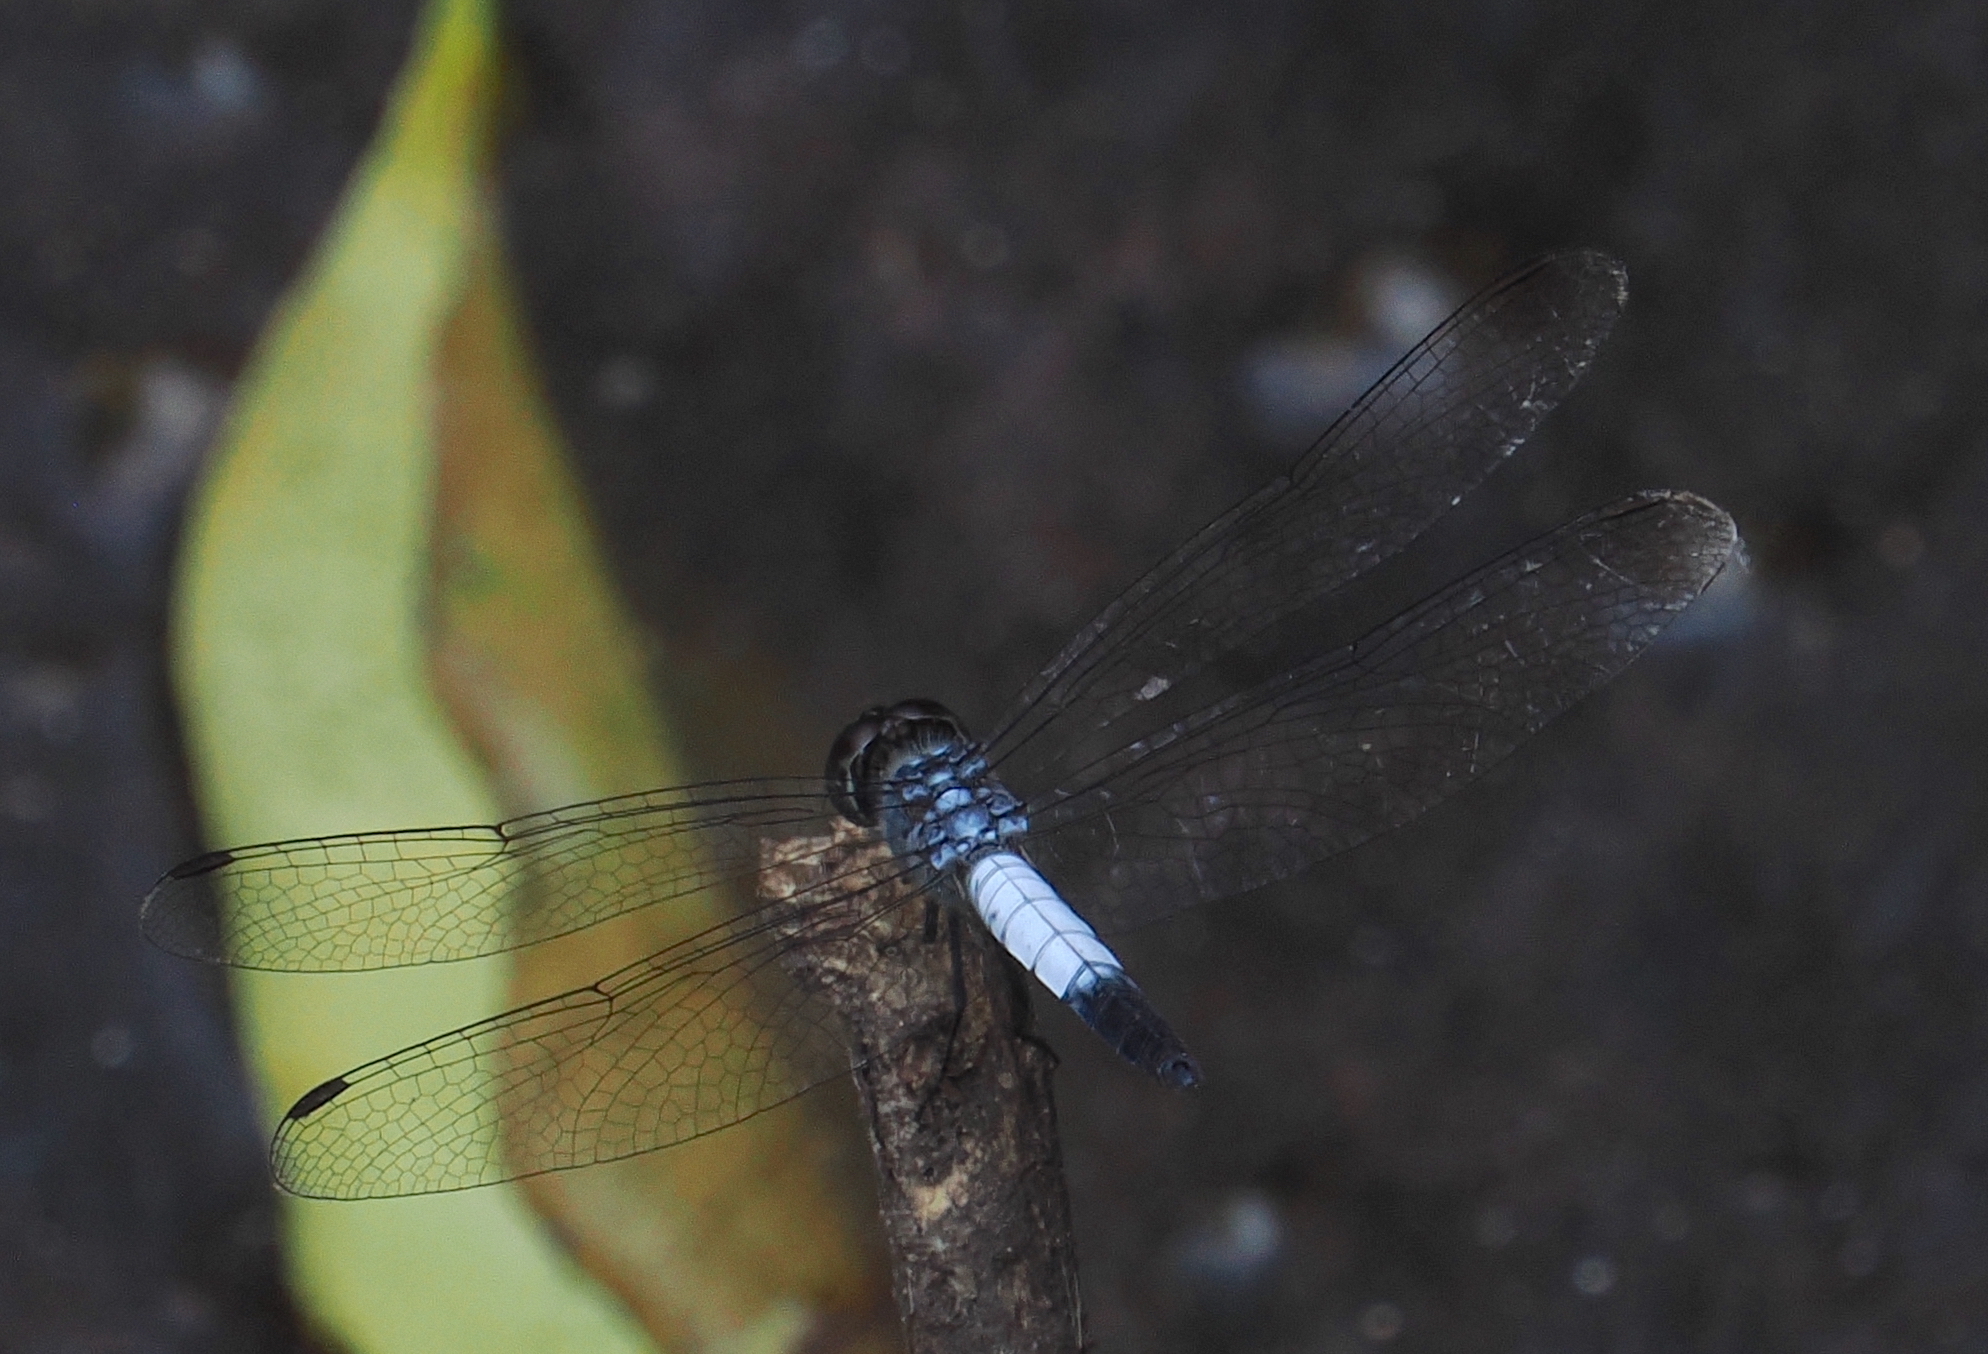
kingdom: Animalia
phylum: Arthropoda
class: Insecta
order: Odonata
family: Libellulidae
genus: Brachydiplax
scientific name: Brachydiplax farinosa
